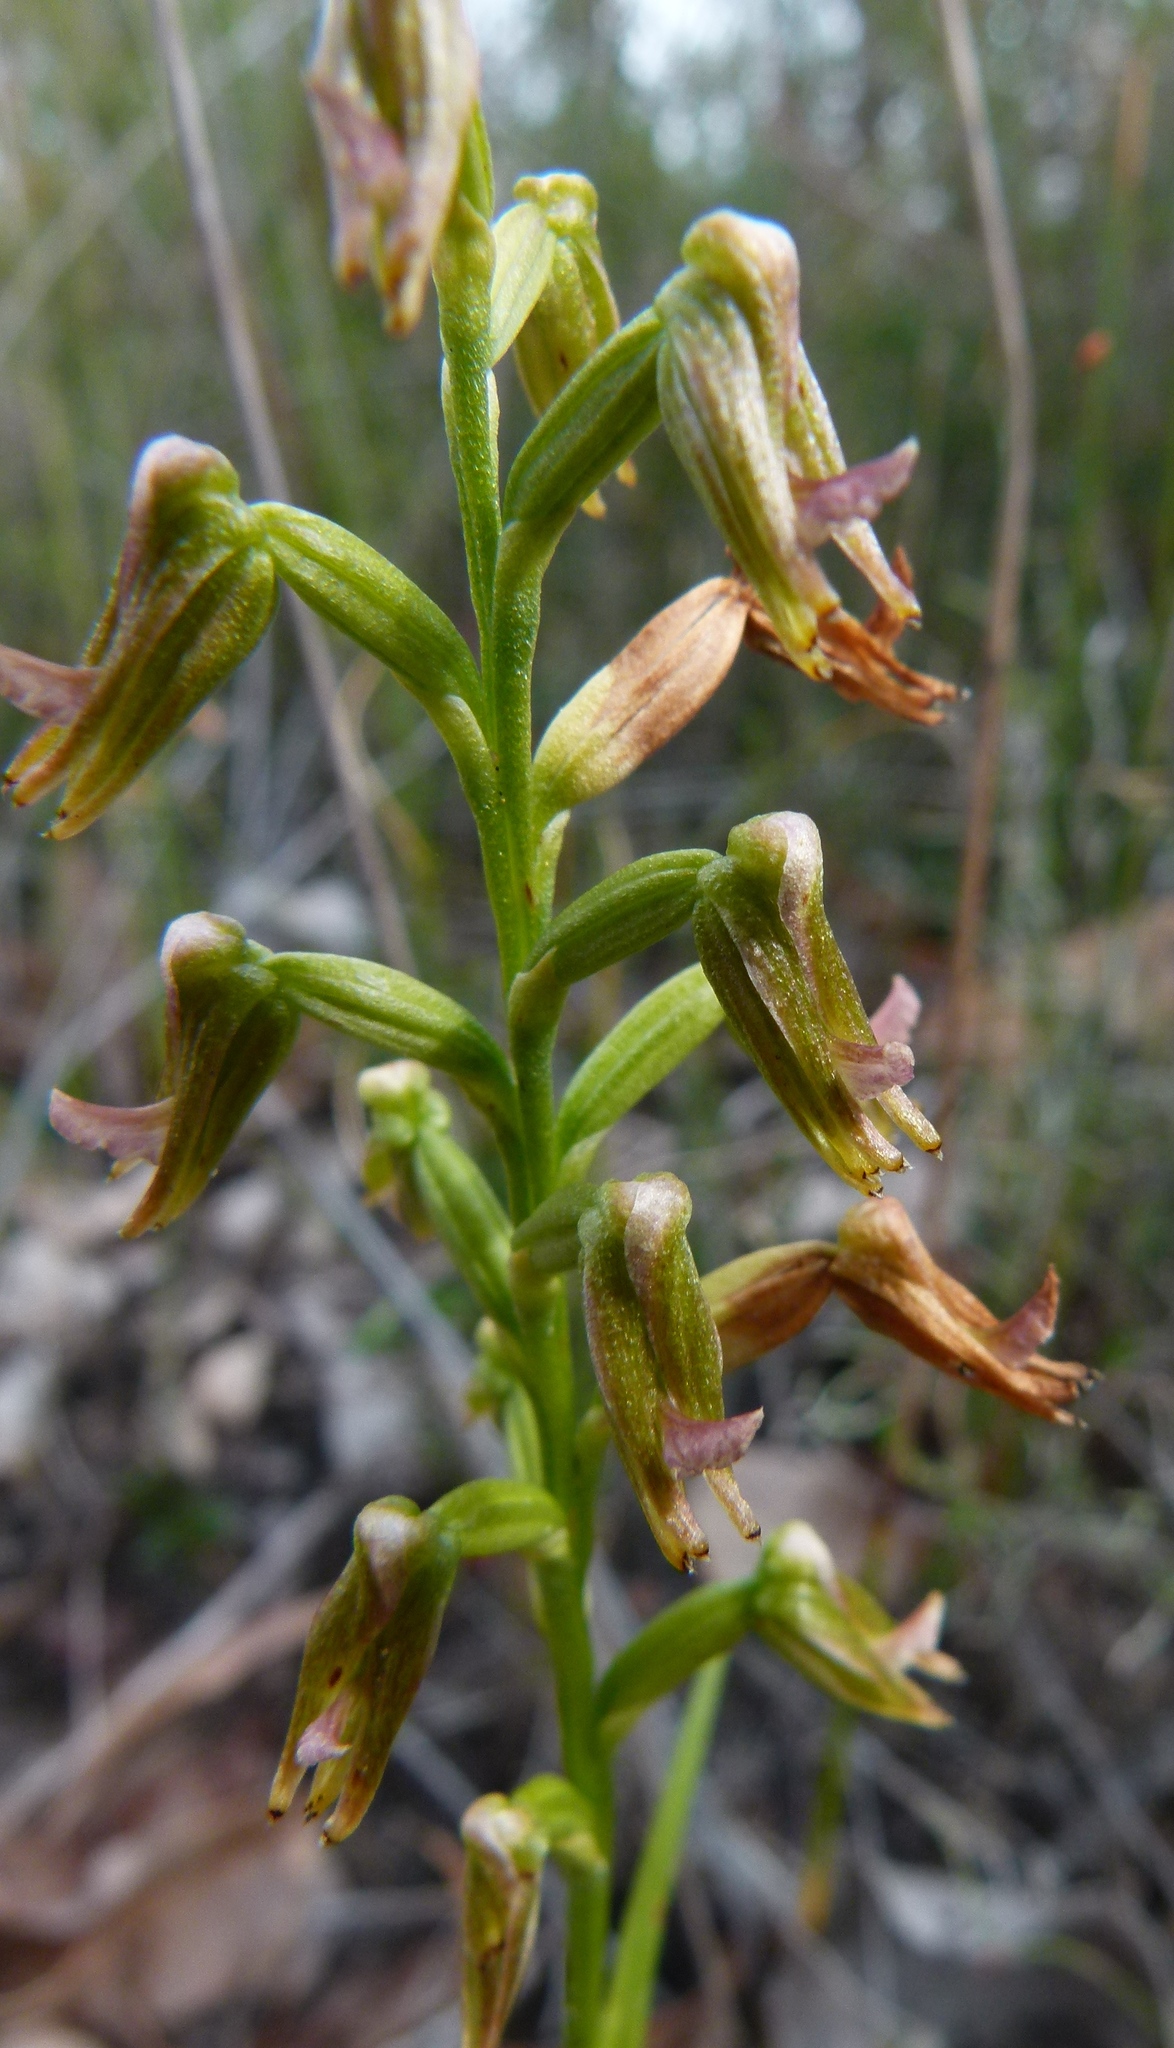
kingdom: Plantae
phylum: Tracheophyta
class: Liliopsida
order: Asparagales
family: Orchidaceae
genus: Prasophyllum
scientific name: Prasophyllum parvifolium
